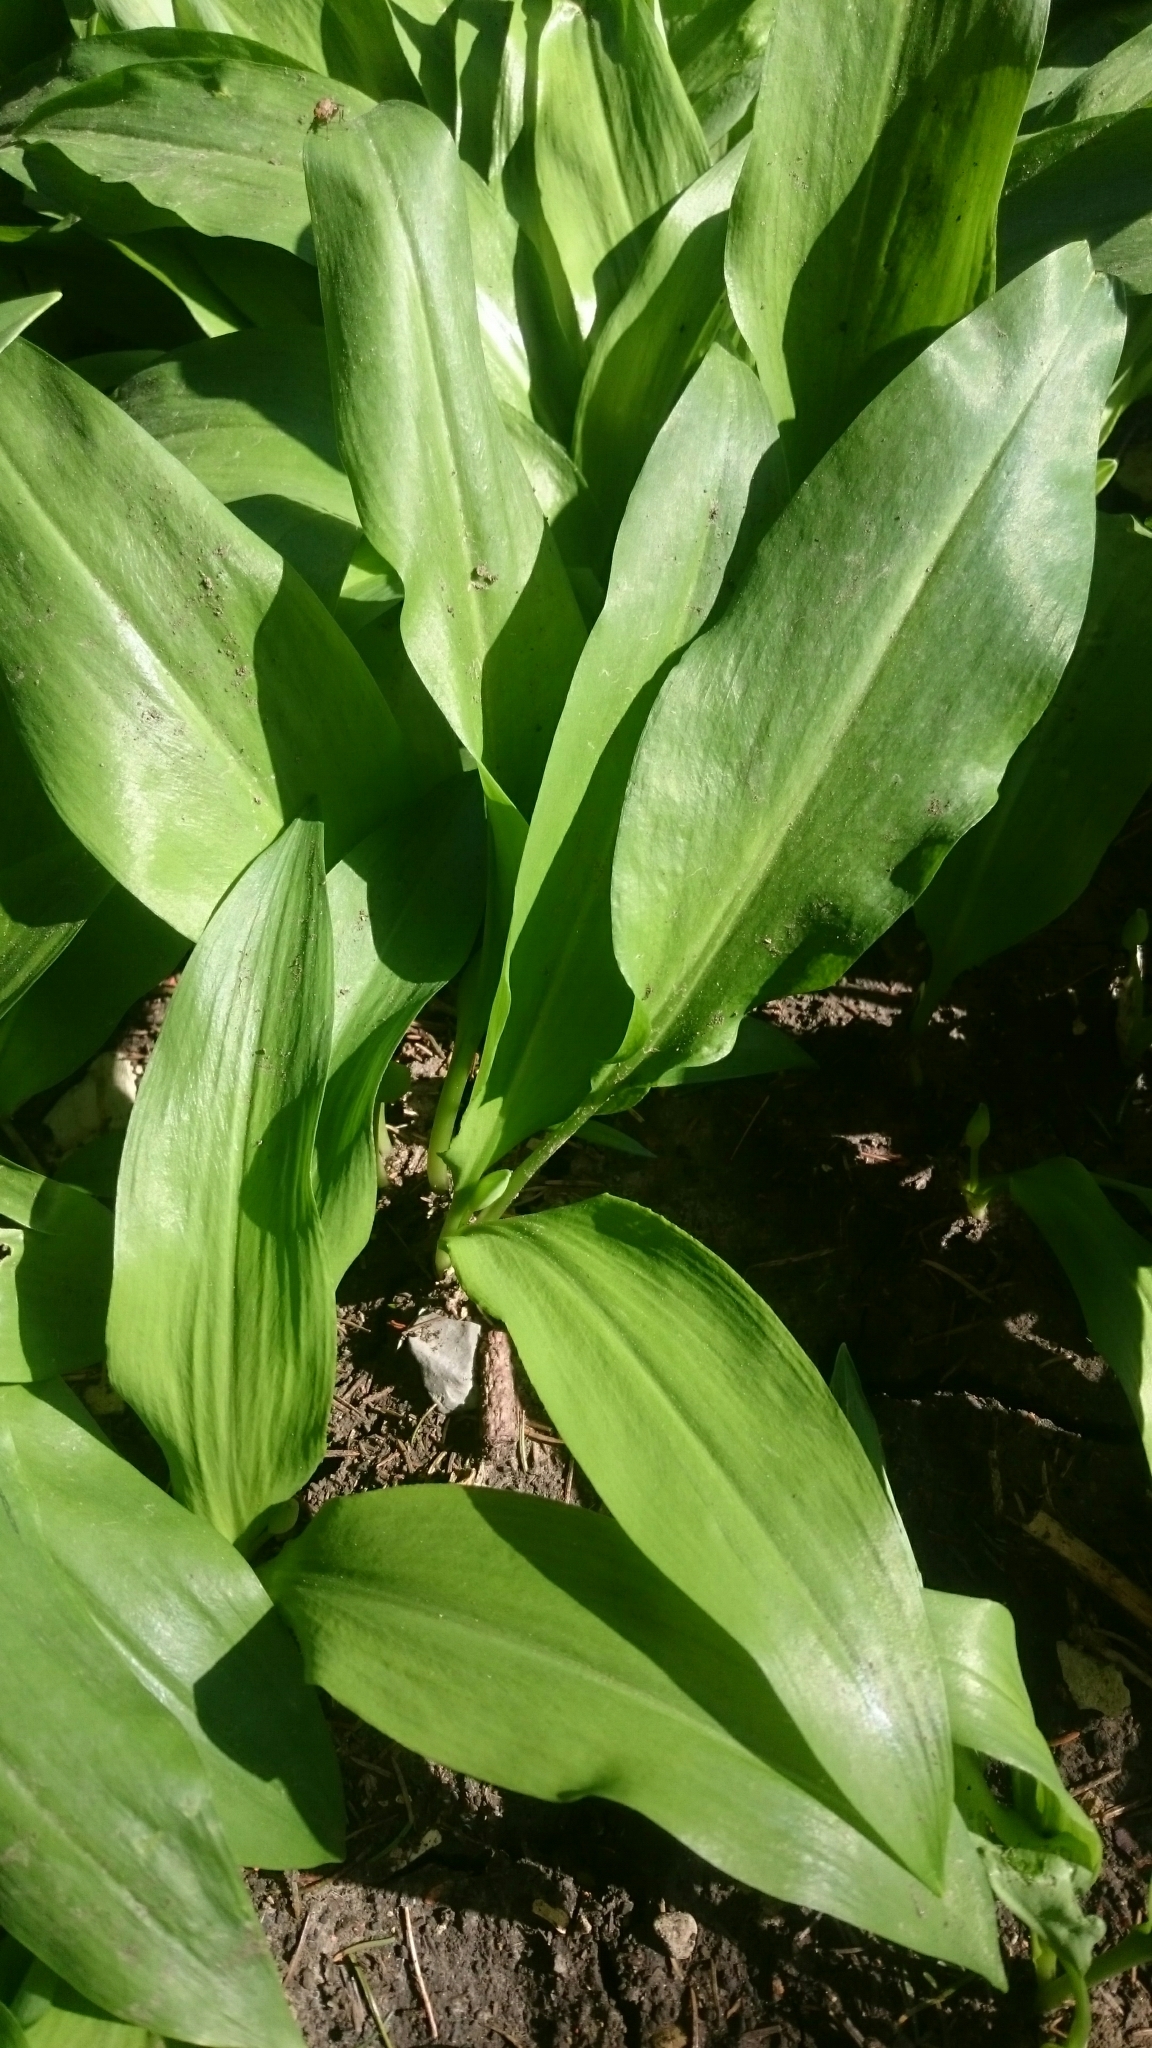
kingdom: Plantae
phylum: Tracheophyta
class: Liliopsida
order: Asparagales
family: Amaryllidaceae
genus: Allium
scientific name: Allium ursinum
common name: Ramsons
